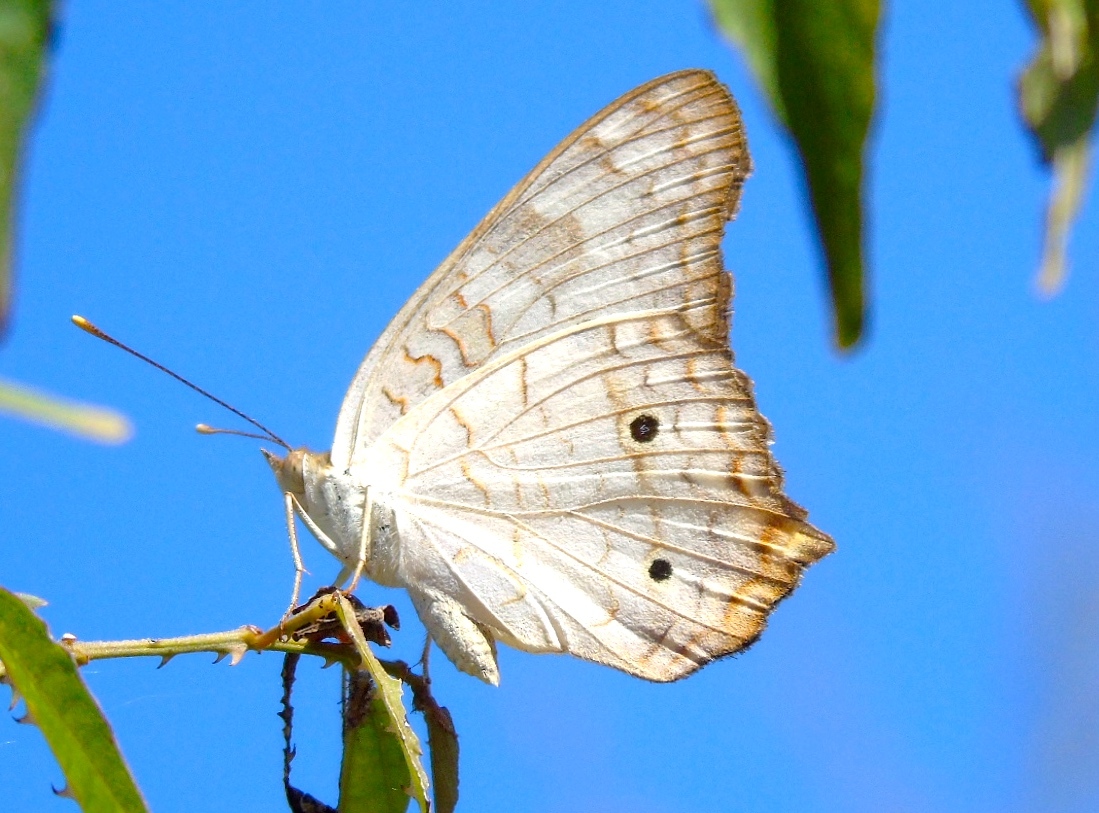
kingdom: Animalia
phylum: Arthropoda
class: Insecta
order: Lepidoptera
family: Nymphalidae
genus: Anartia
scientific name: Anartia jatrophae
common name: White peacock
